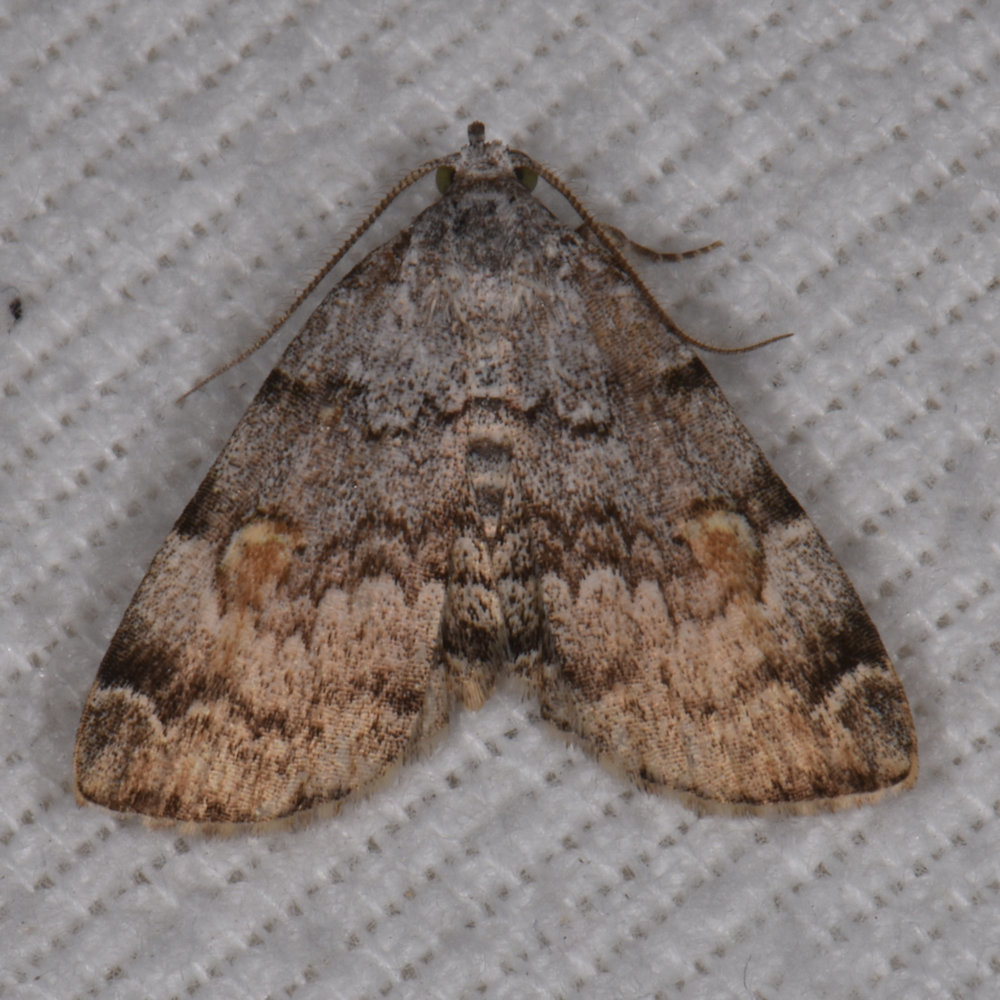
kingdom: Animalia
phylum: Arthropoda
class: Insecta
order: Lepidoptera
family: Erebidae
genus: Idia
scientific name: Idia americalis
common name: American idia moth
